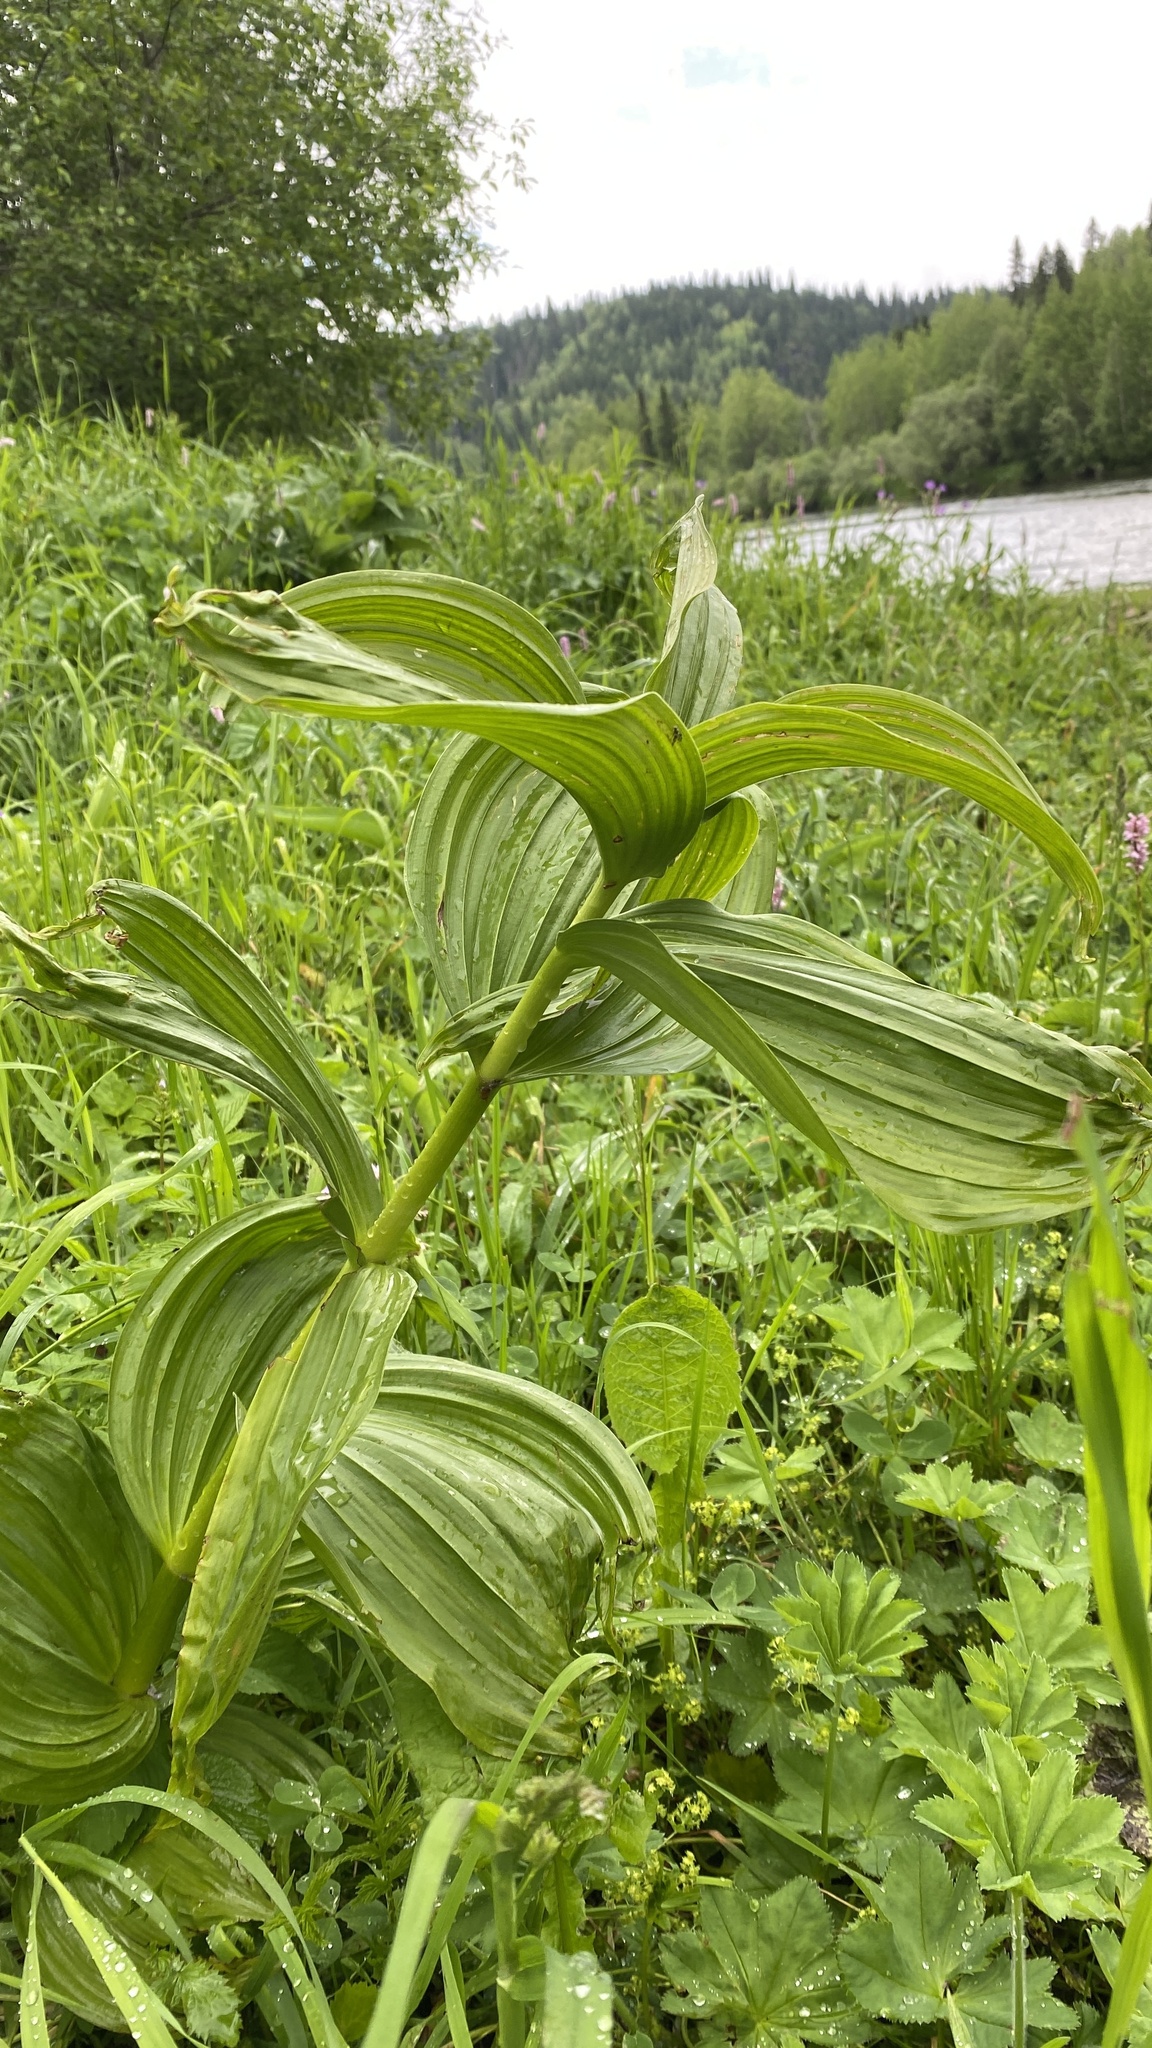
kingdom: Plantae
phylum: Tracheophyta
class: Liliopsida
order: Liliales
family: Melanthiaceae
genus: Veratrum
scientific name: Veratrum lobelianum
